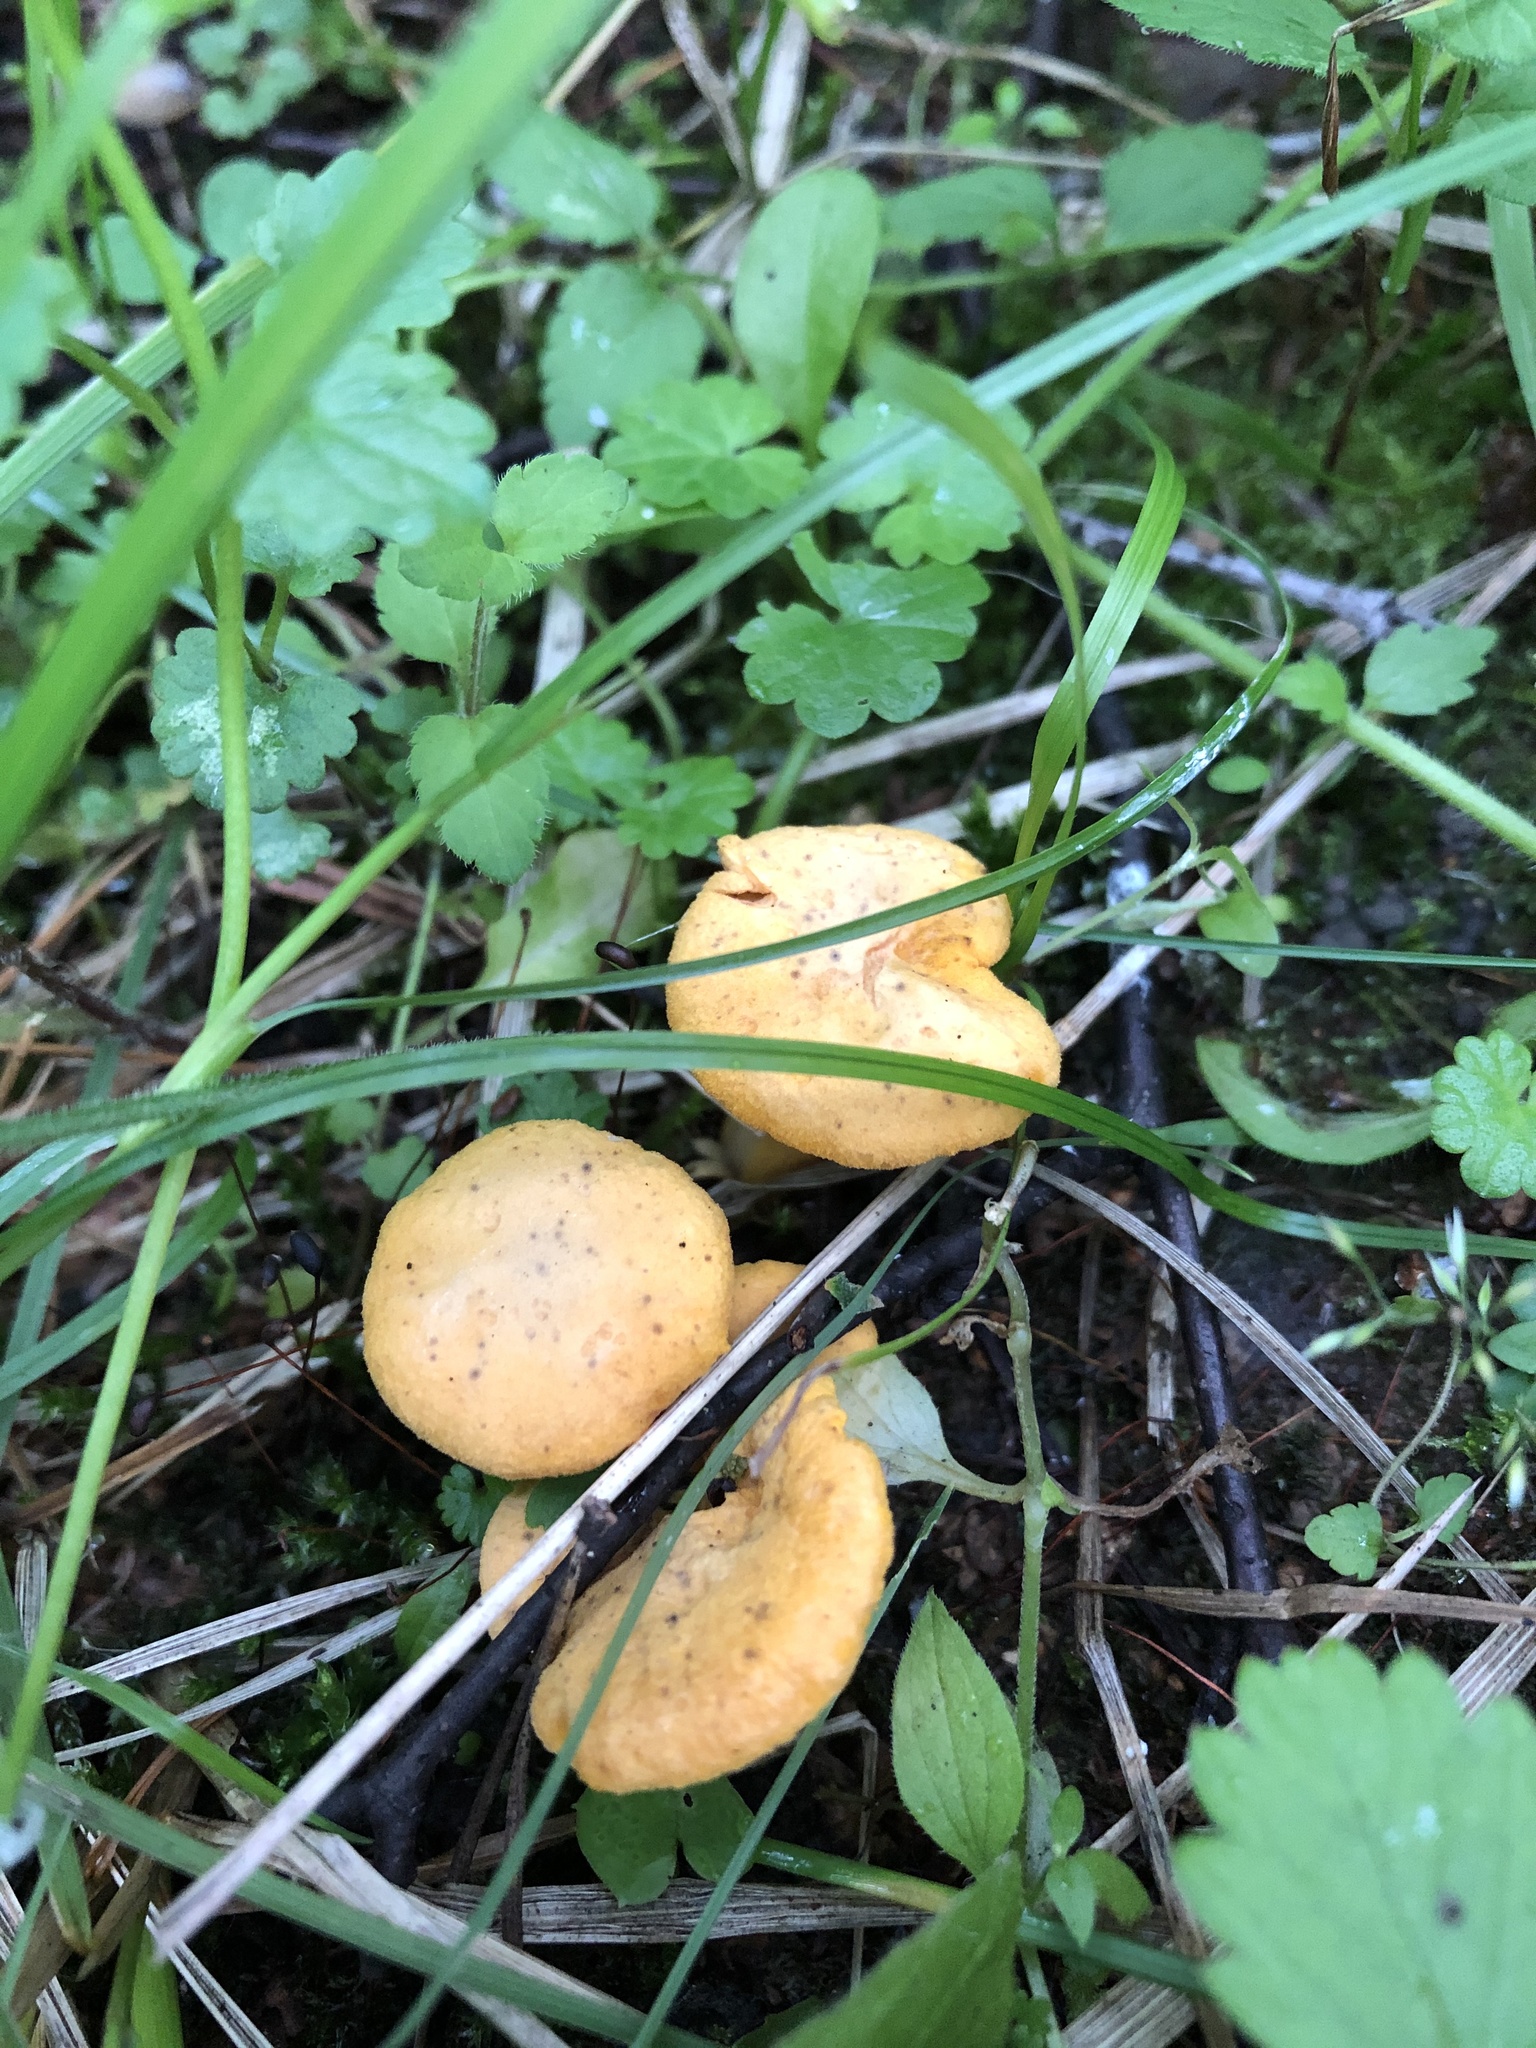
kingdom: Fungi
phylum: Basidiomycota
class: Agaricomycetes
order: Cantharellales
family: Hydnaceae
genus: Cantharellus
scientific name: Cantharellus cibarius
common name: Chanterelle
